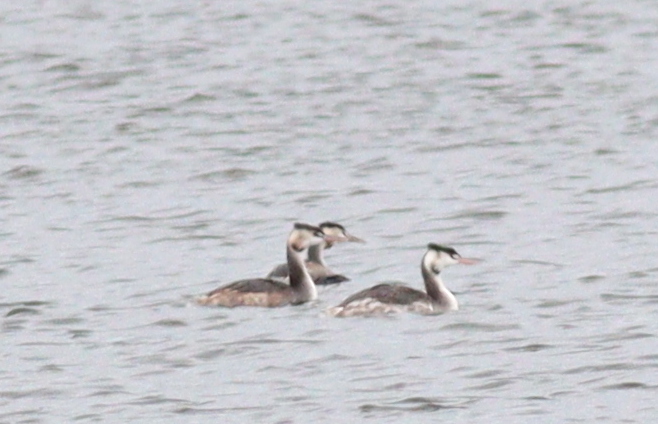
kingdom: Animalia
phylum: Chordata
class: Aves
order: Podicipediformes
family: Podicipedidae
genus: Podiceps
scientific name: Podiceps cristatus
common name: Great crested grebe
